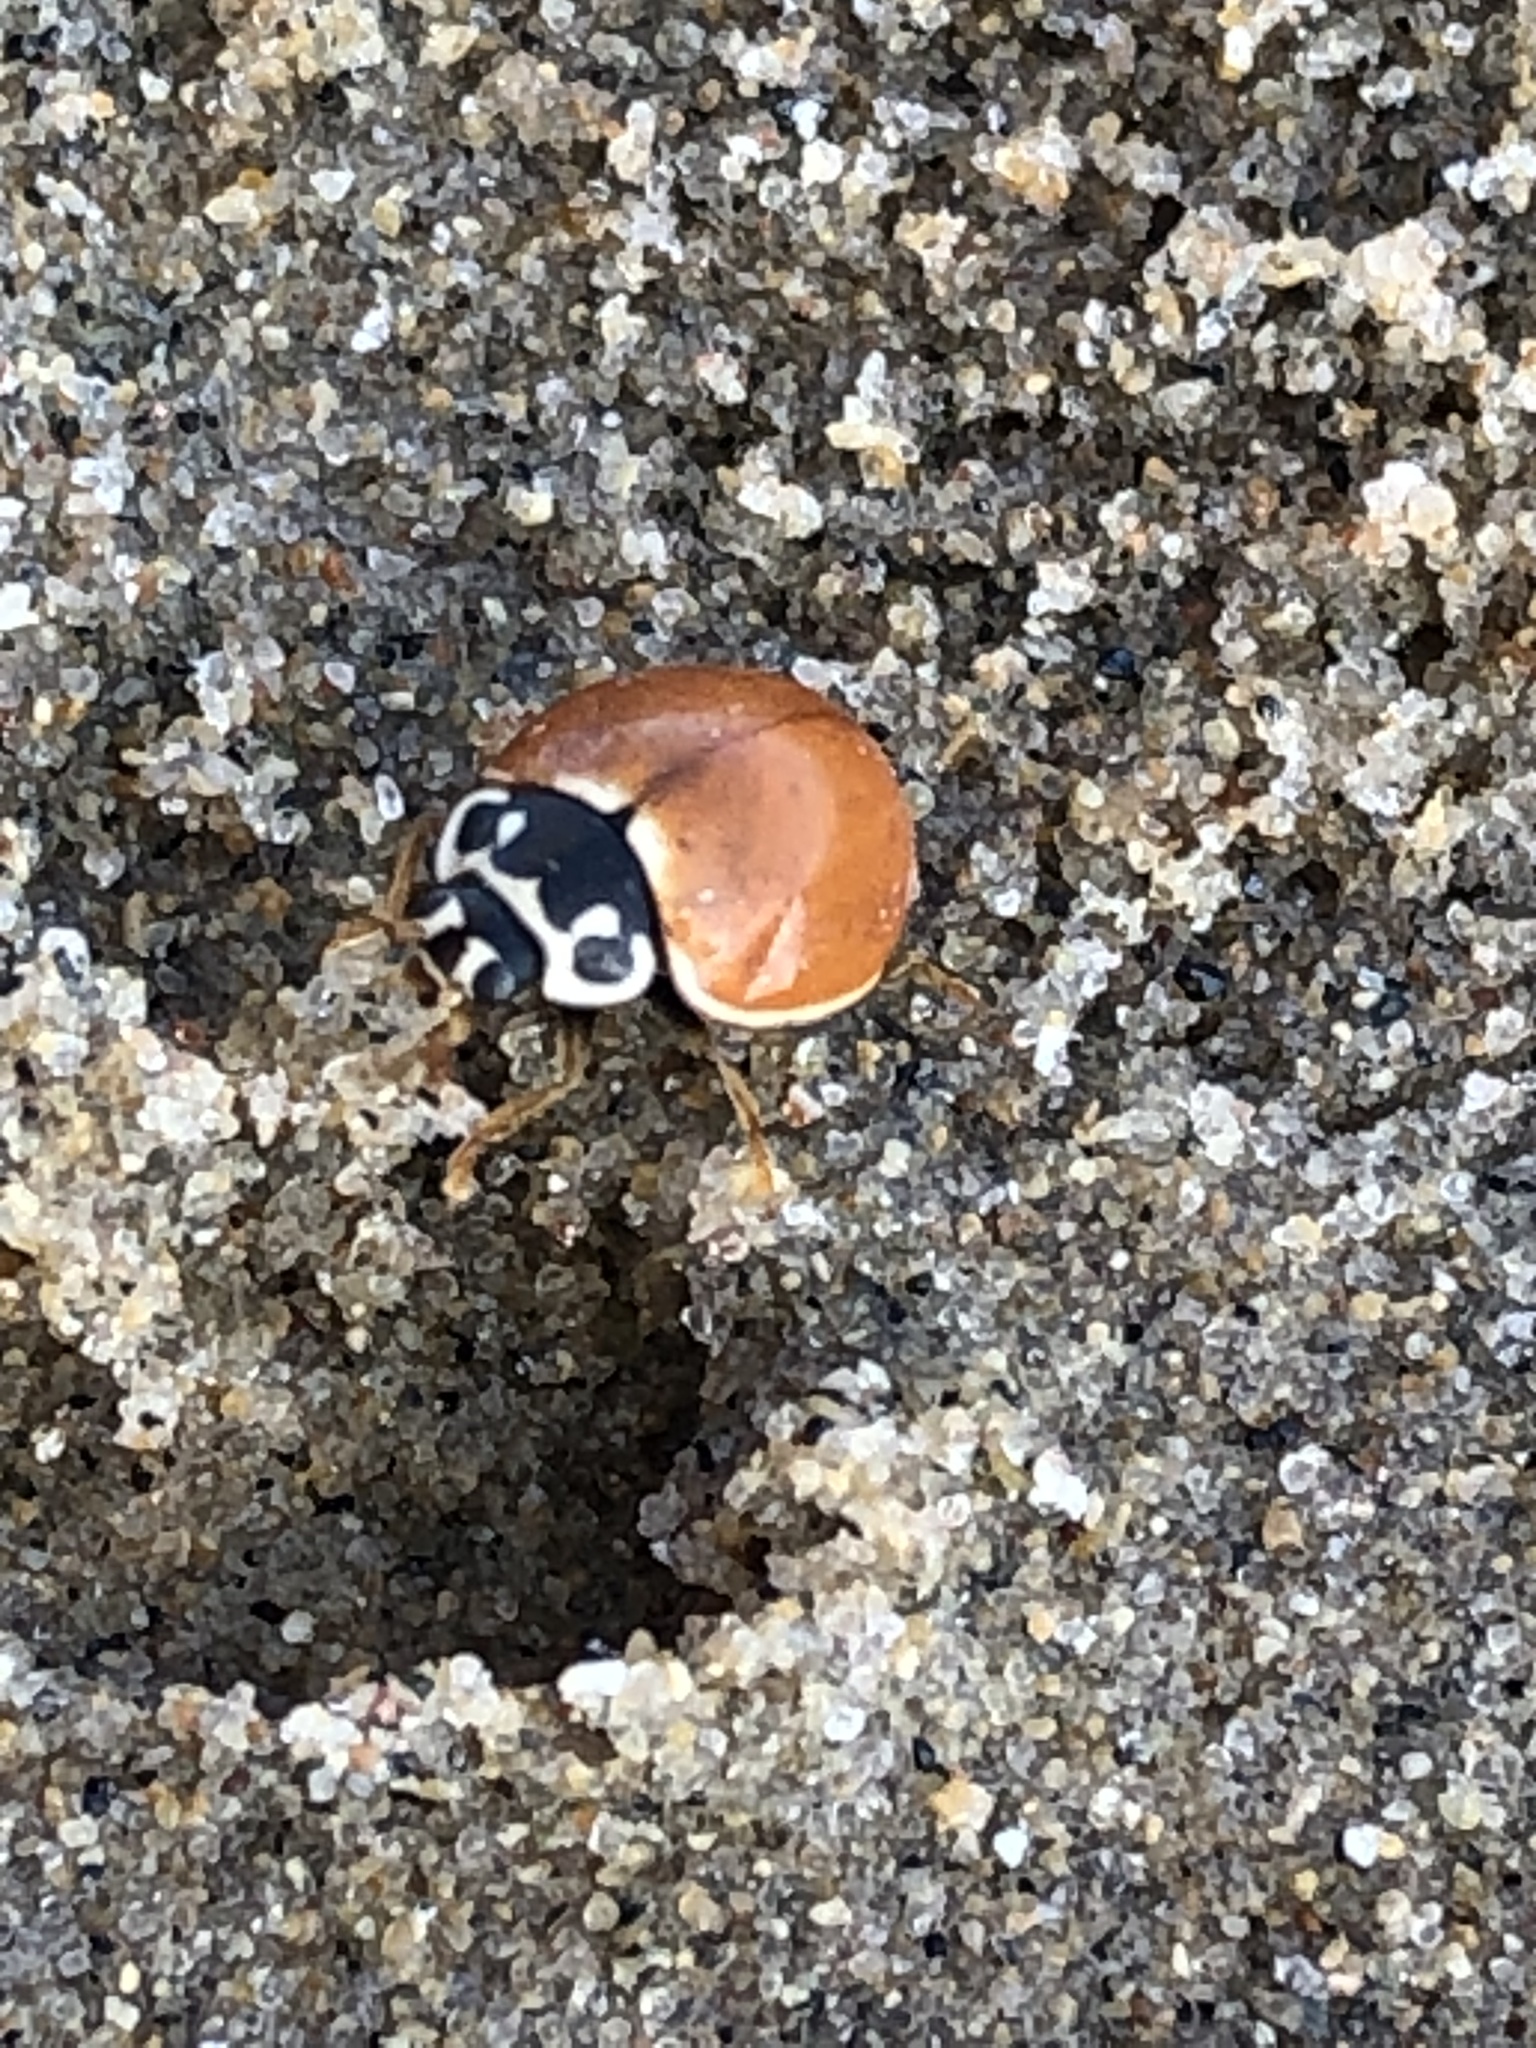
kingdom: Animalia
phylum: Arthropoda
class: Insecta
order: Coleoptera
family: Coccinellidae
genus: Cycloneda
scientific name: Cycloneda munda
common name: Polished lady beetle
